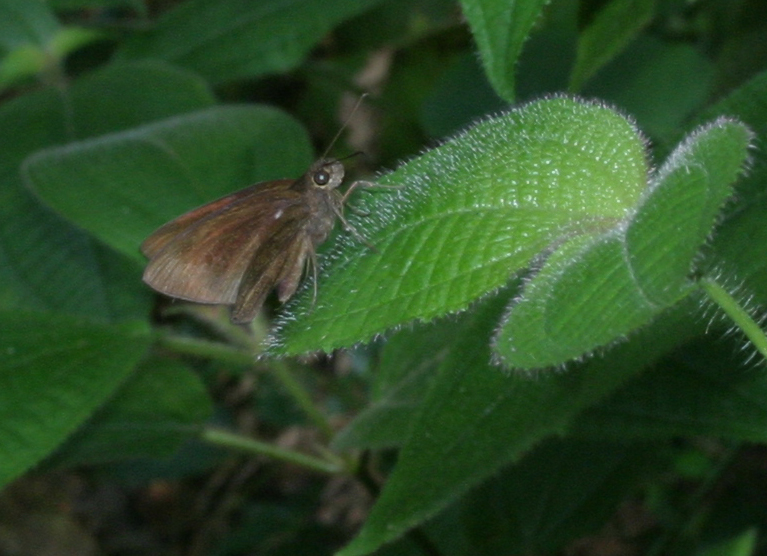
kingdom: Animalia
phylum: Arthropoda
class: Insecta
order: Lepidoptera
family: Hesperiidae
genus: Ancistroides
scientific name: Ancistroides nigrita
